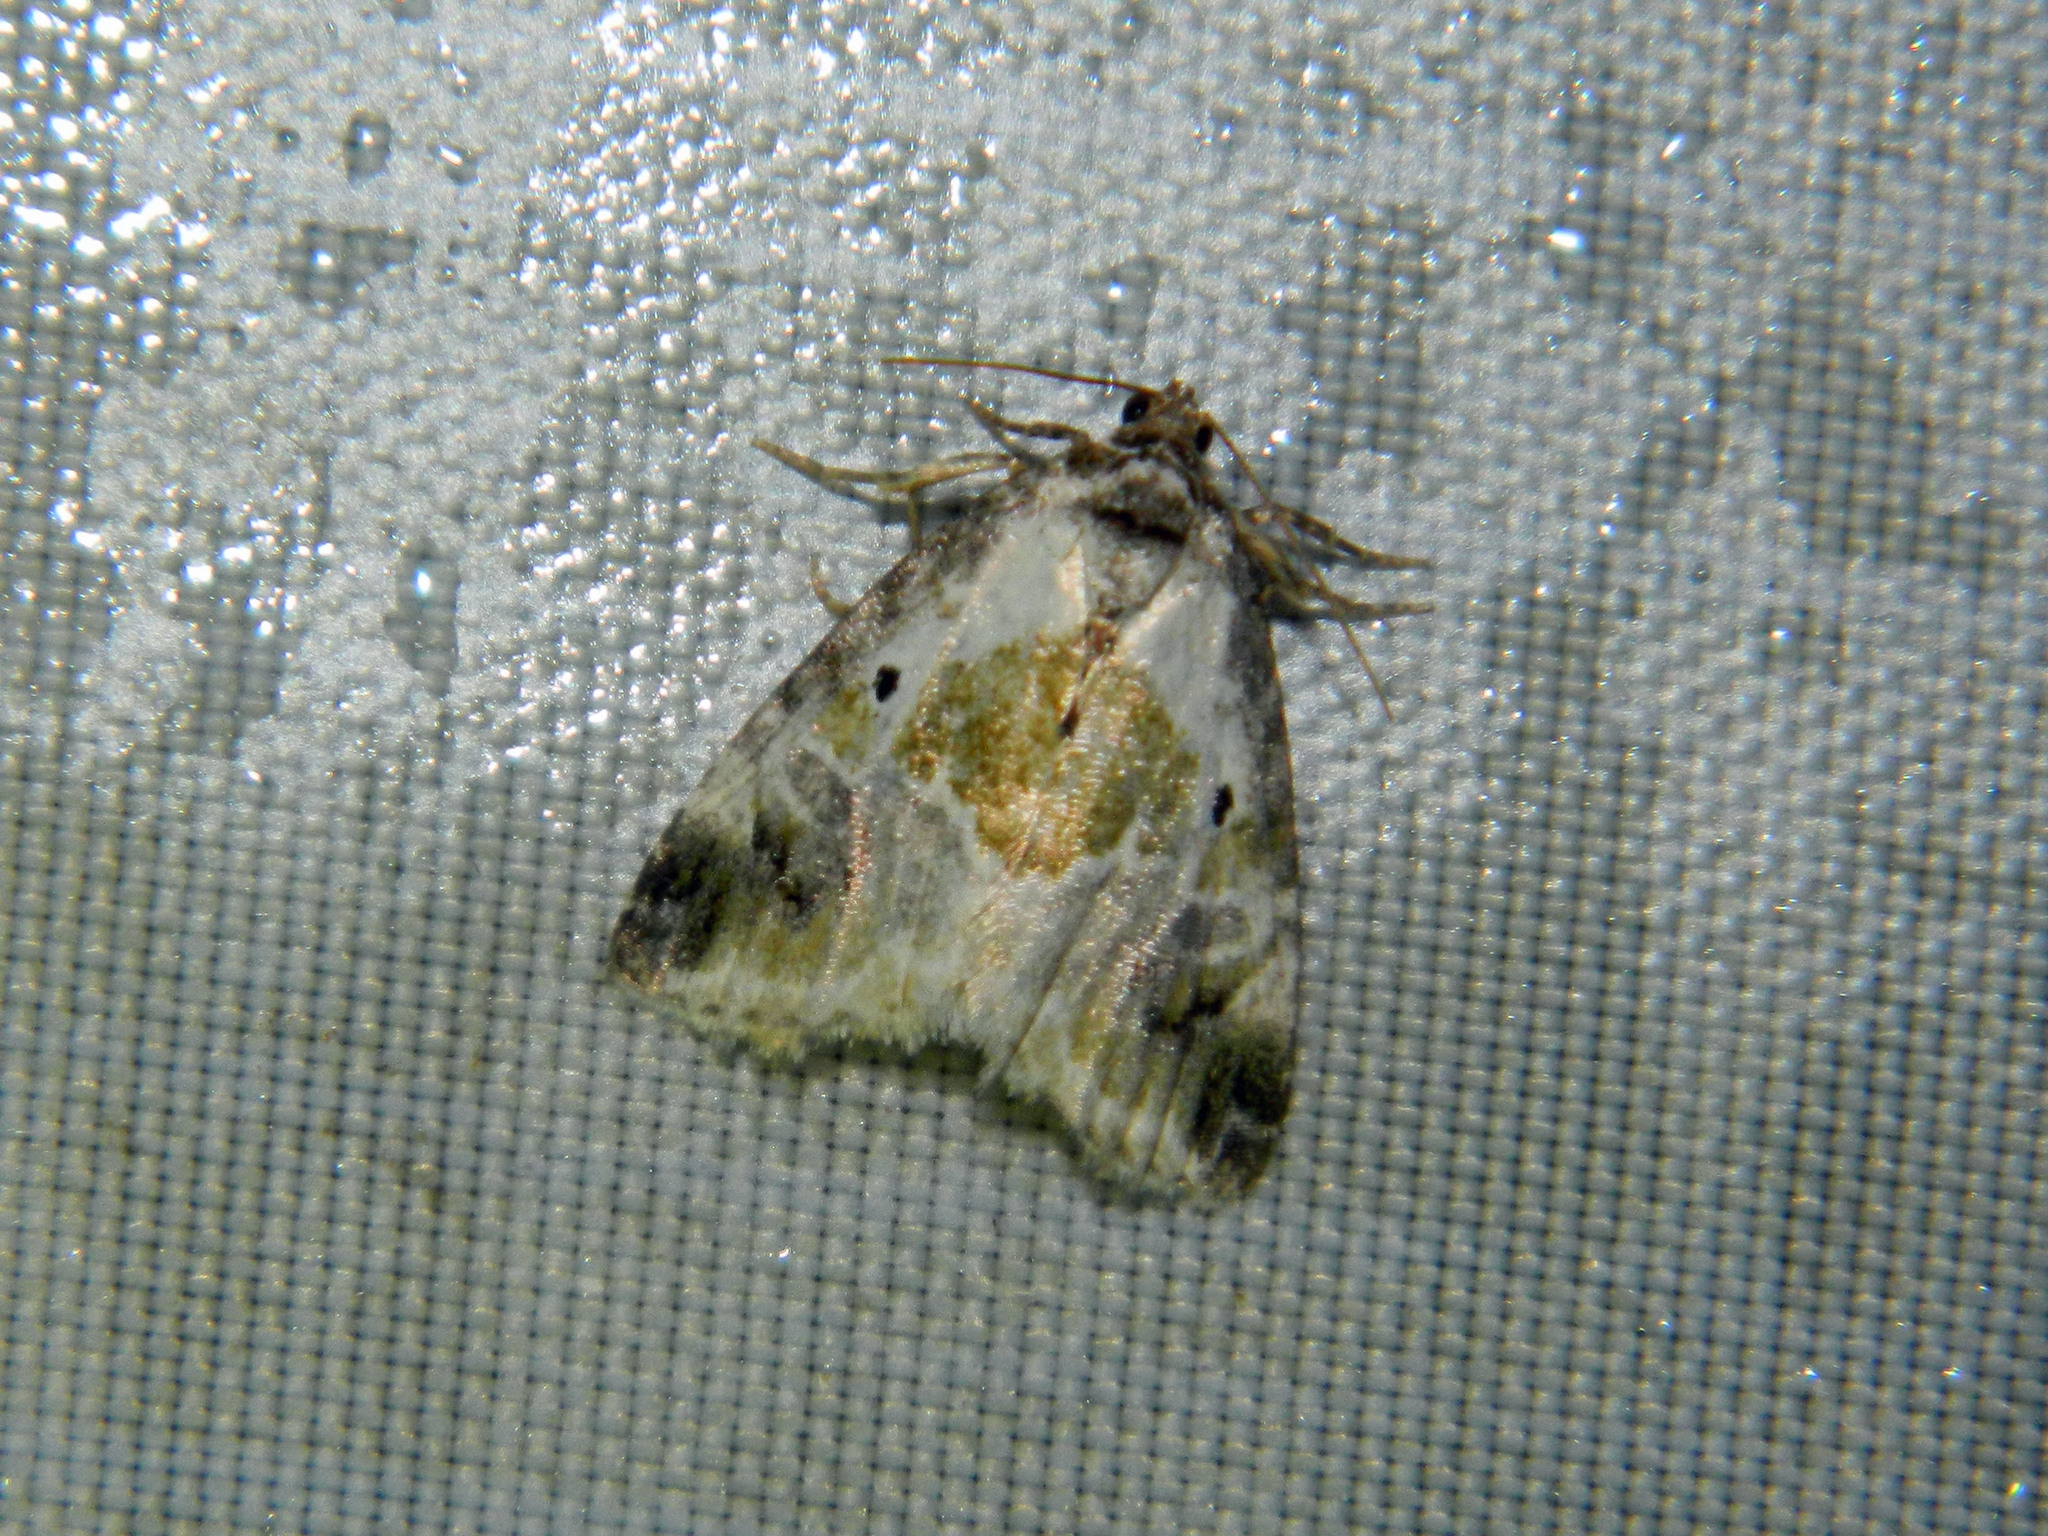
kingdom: Animalia
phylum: Arthropoda
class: Insecta
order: Lepidoptera
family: Noctuidae
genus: Maliattha
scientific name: Maliattha synochitis
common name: Black-dotted glyph
